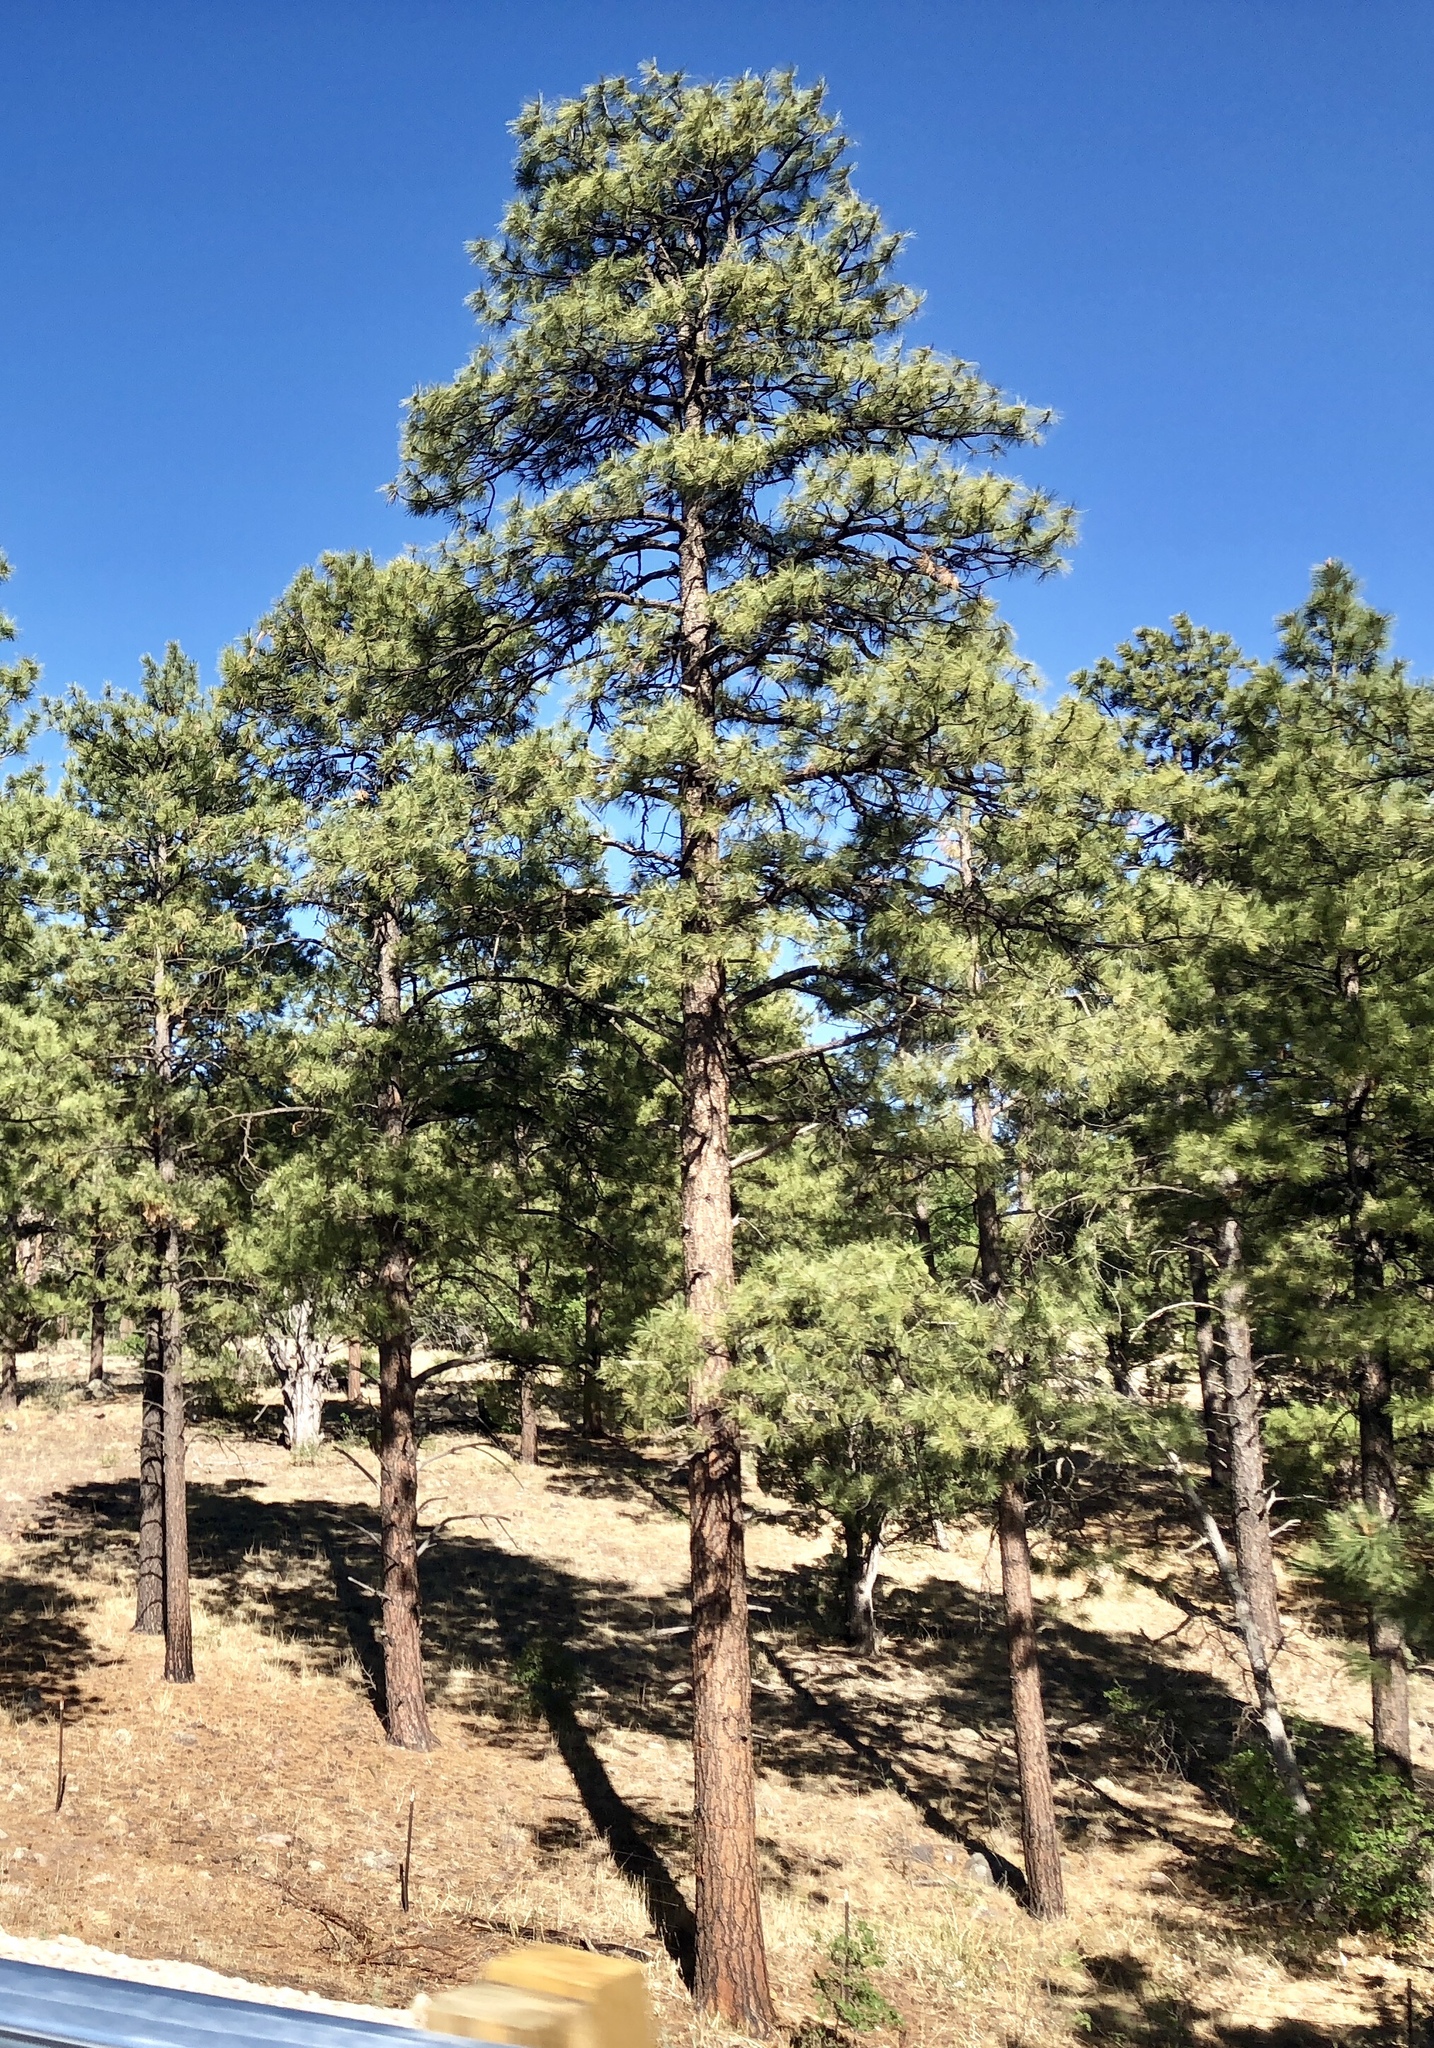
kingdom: Plantae
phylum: Tracheophyta
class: Pinopsida
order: Pinales
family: Pinaceae
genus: Pinus
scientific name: Pinus ponderosa
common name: Western yellow-pine
